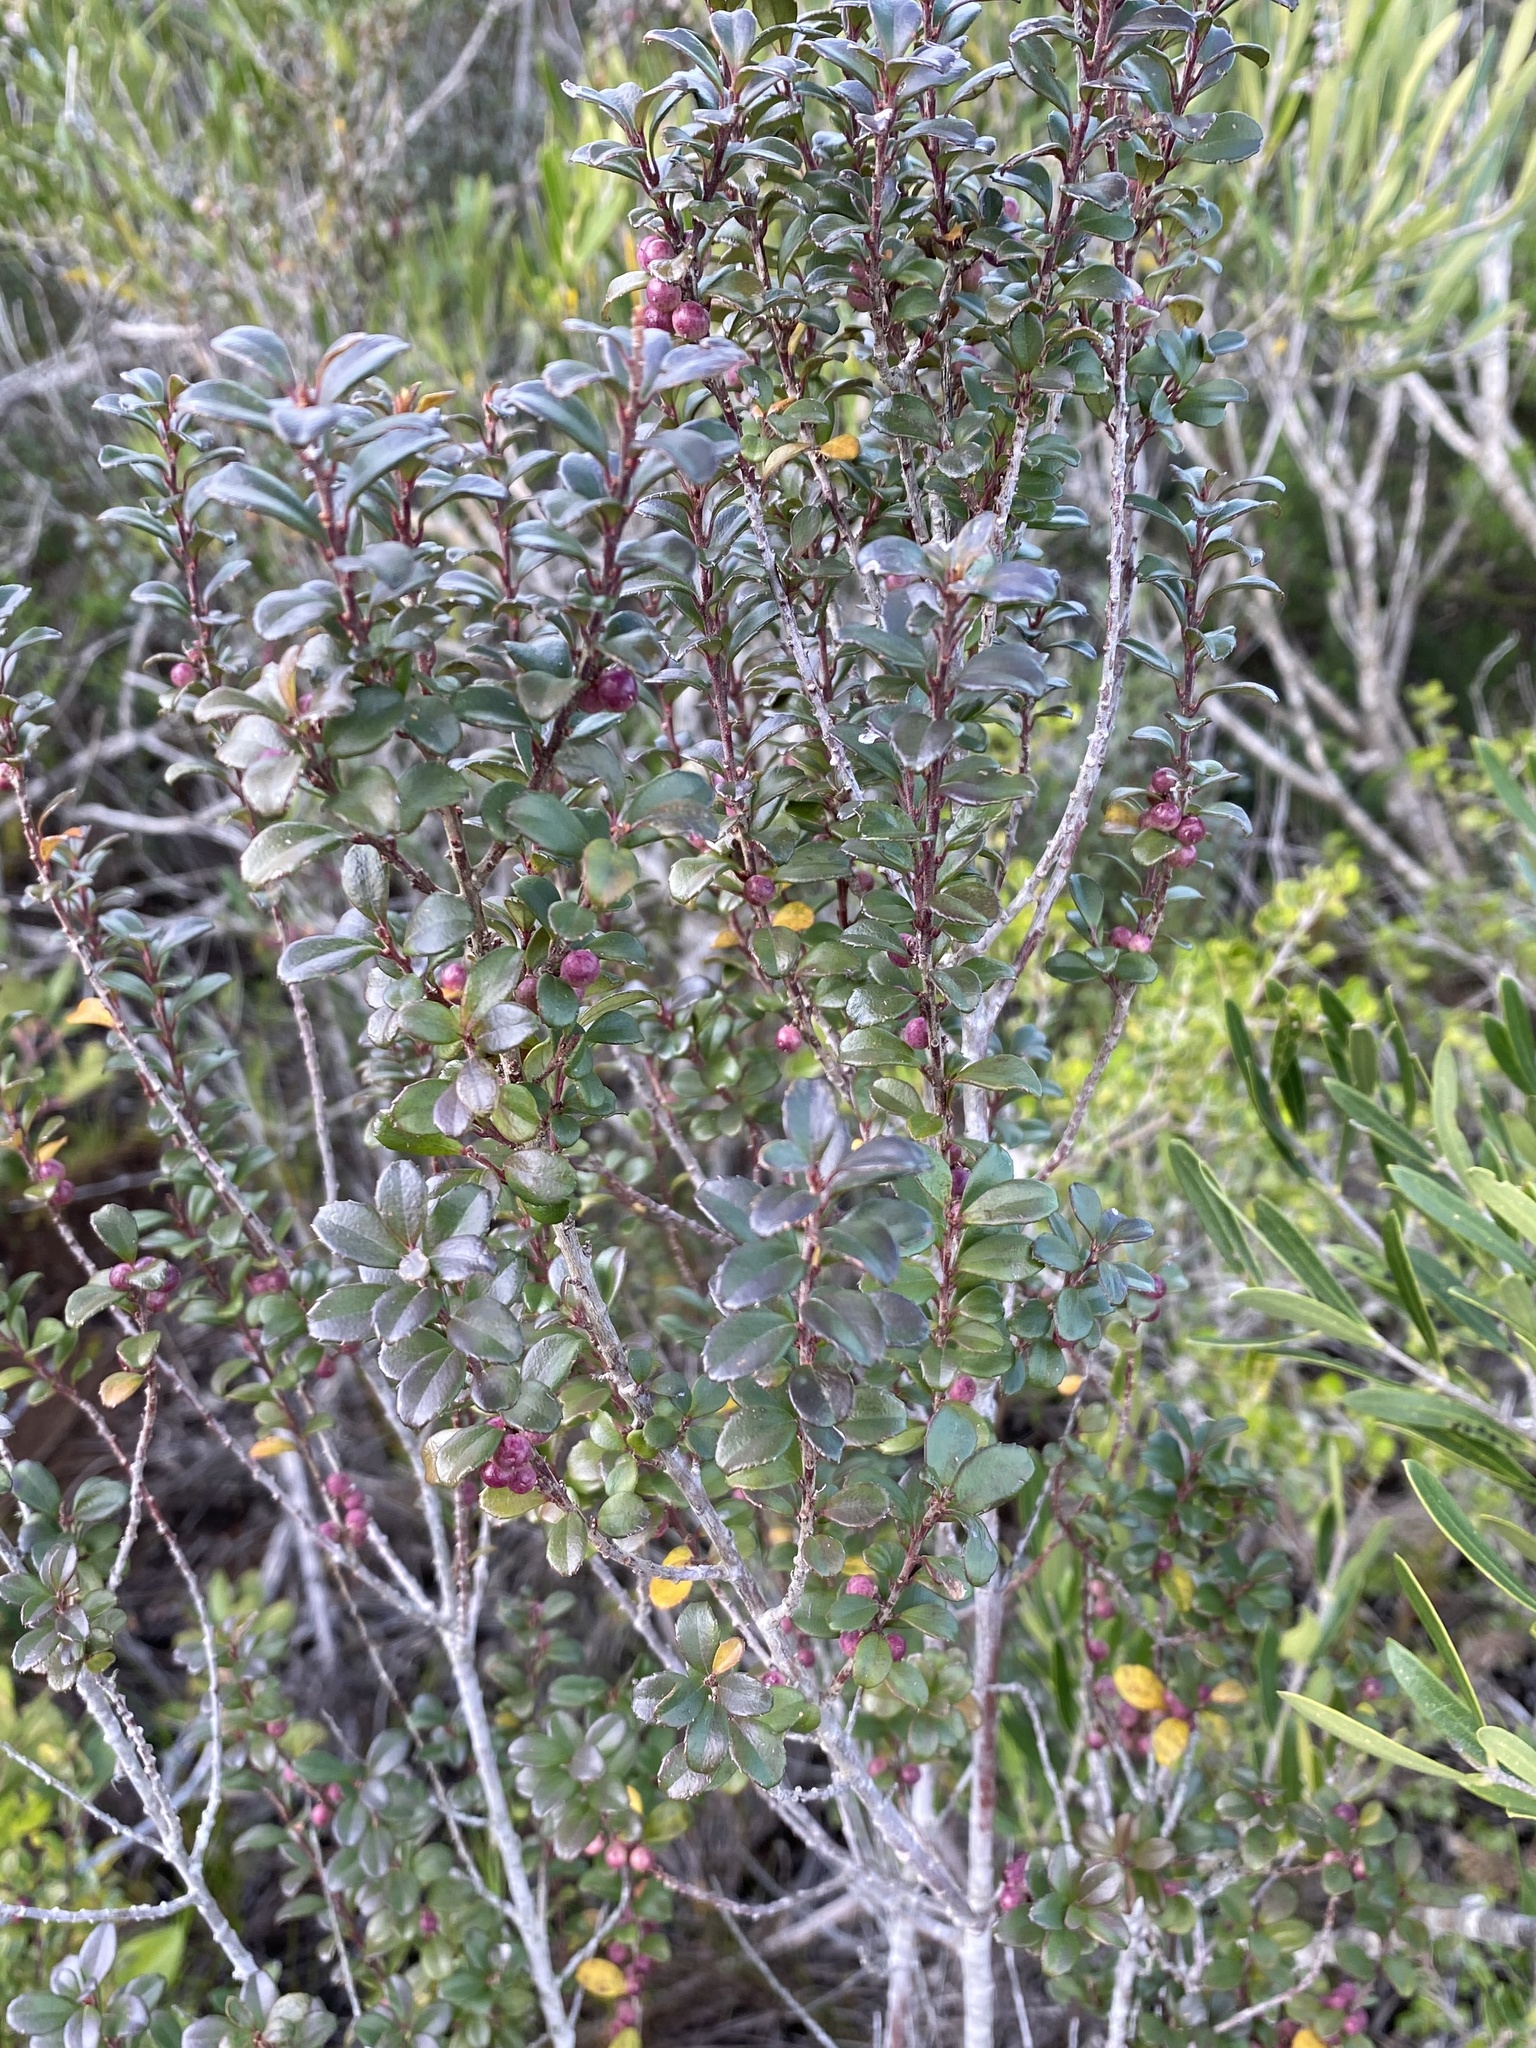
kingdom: Plantae
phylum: Tracheophyta
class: Magnoliopsida
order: Ericales
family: Primulaceae
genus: Myrsine
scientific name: Myrsine africana
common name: African-boxwood
